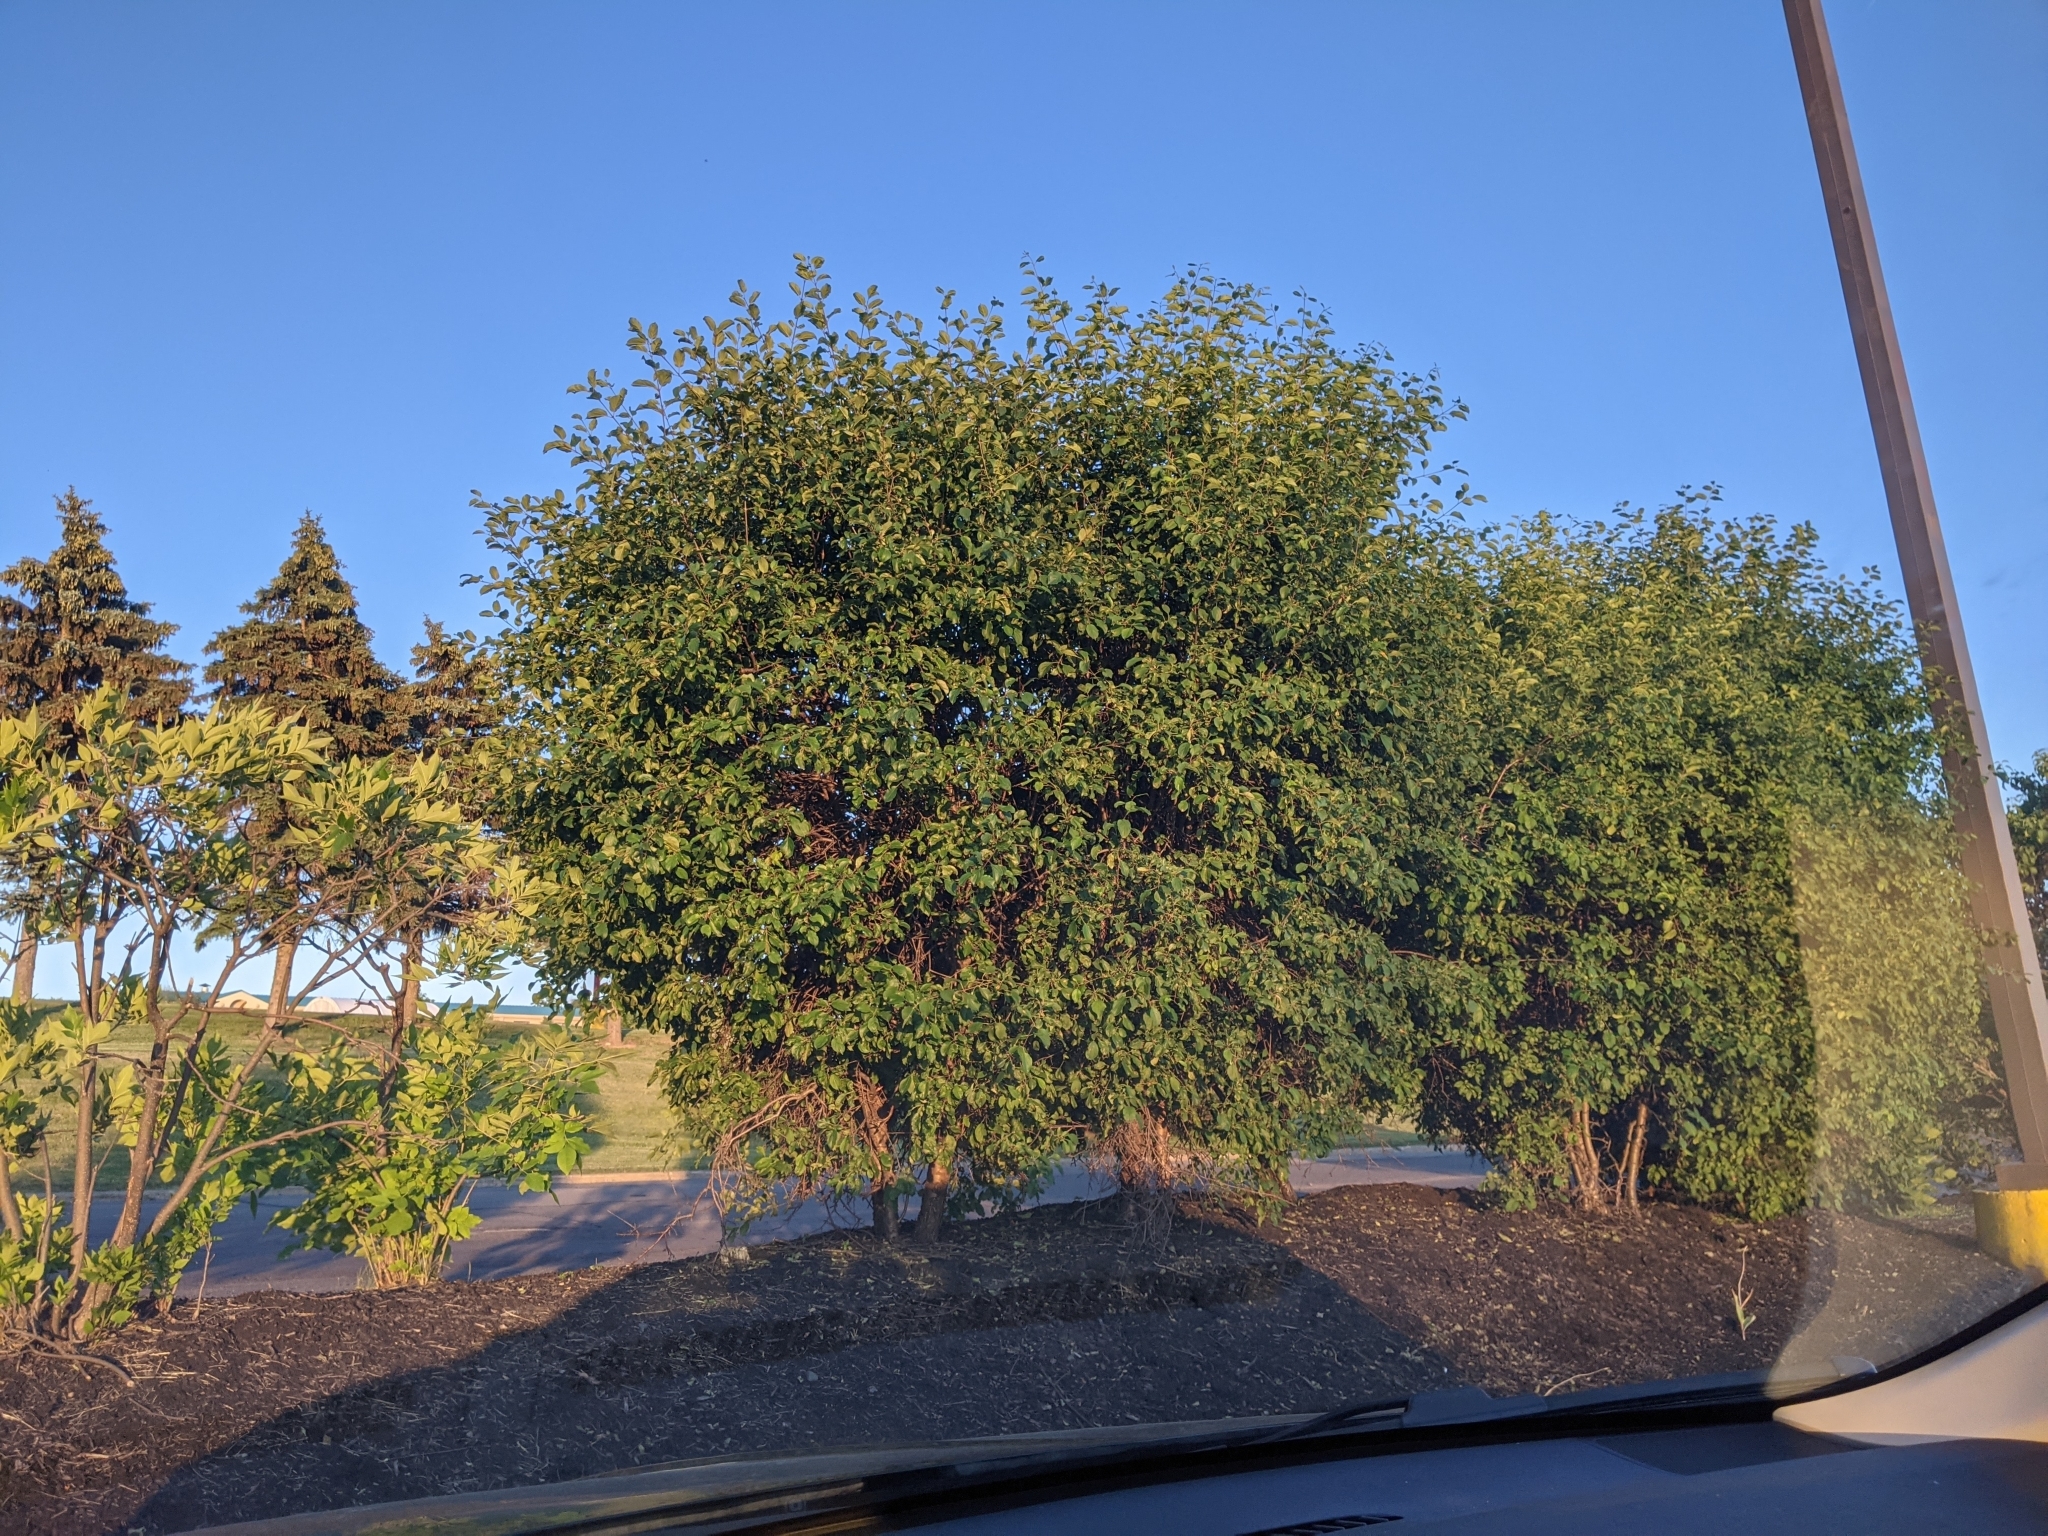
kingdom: Fungi
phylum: Basidiomycota
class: Pucciniomycetes
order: Pucciniales
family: Pucciniaceae
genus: Puccinia
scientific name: Puccinia coronata
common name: Crown rust
